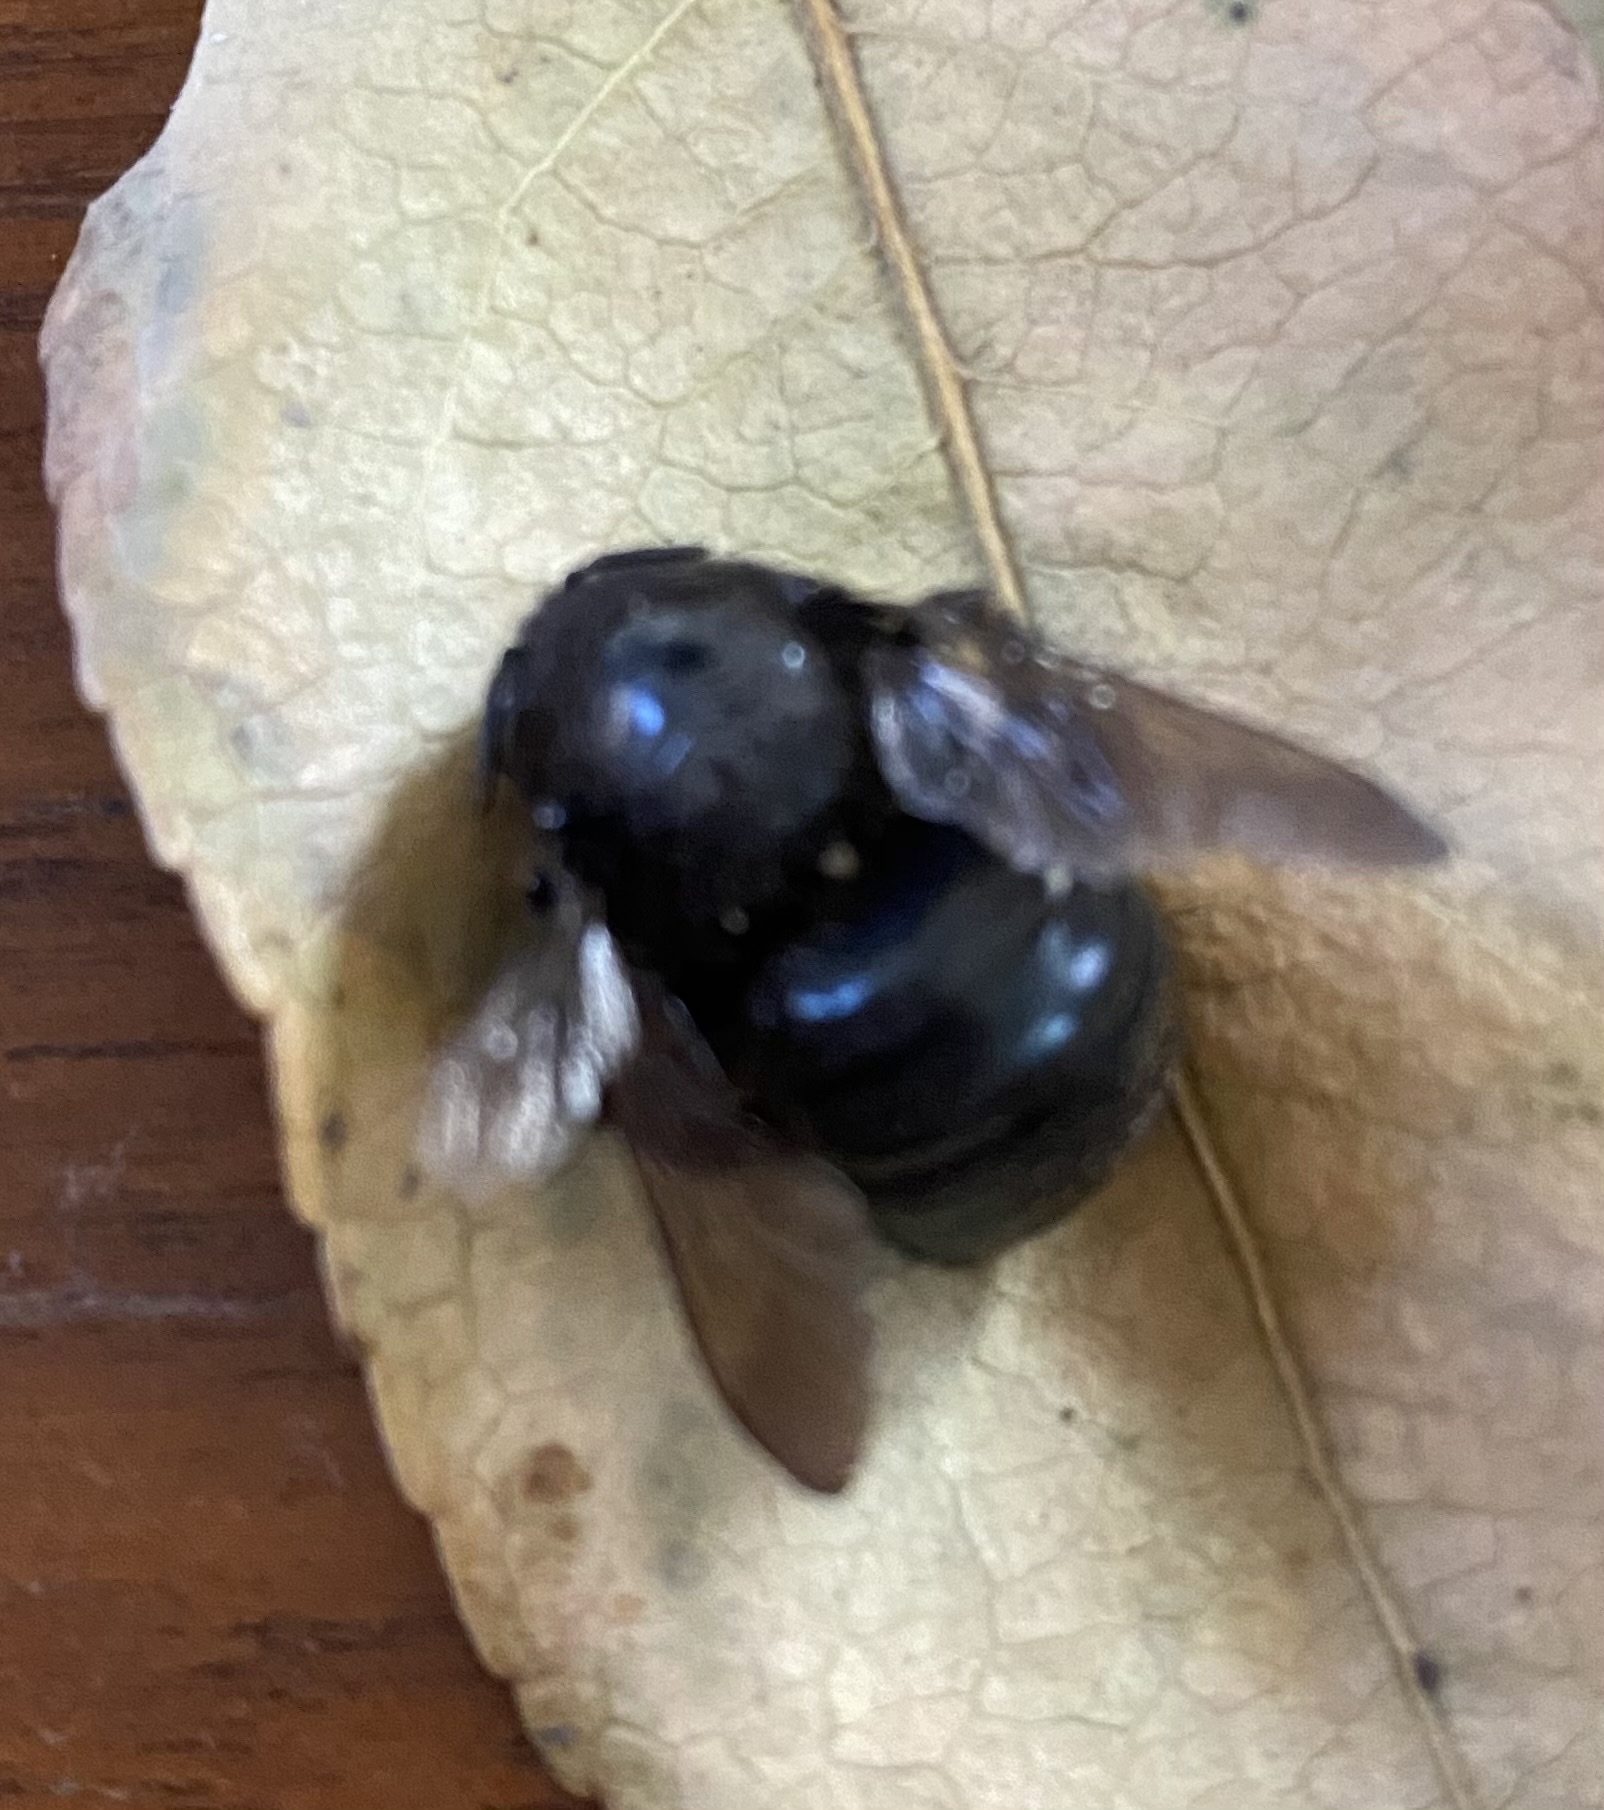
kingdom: Animalia
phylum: Arthropoda
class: Insecta
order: Hymenoptera
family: Apidae
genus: Xylocopa
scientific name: Xylocopa tabaniformis
